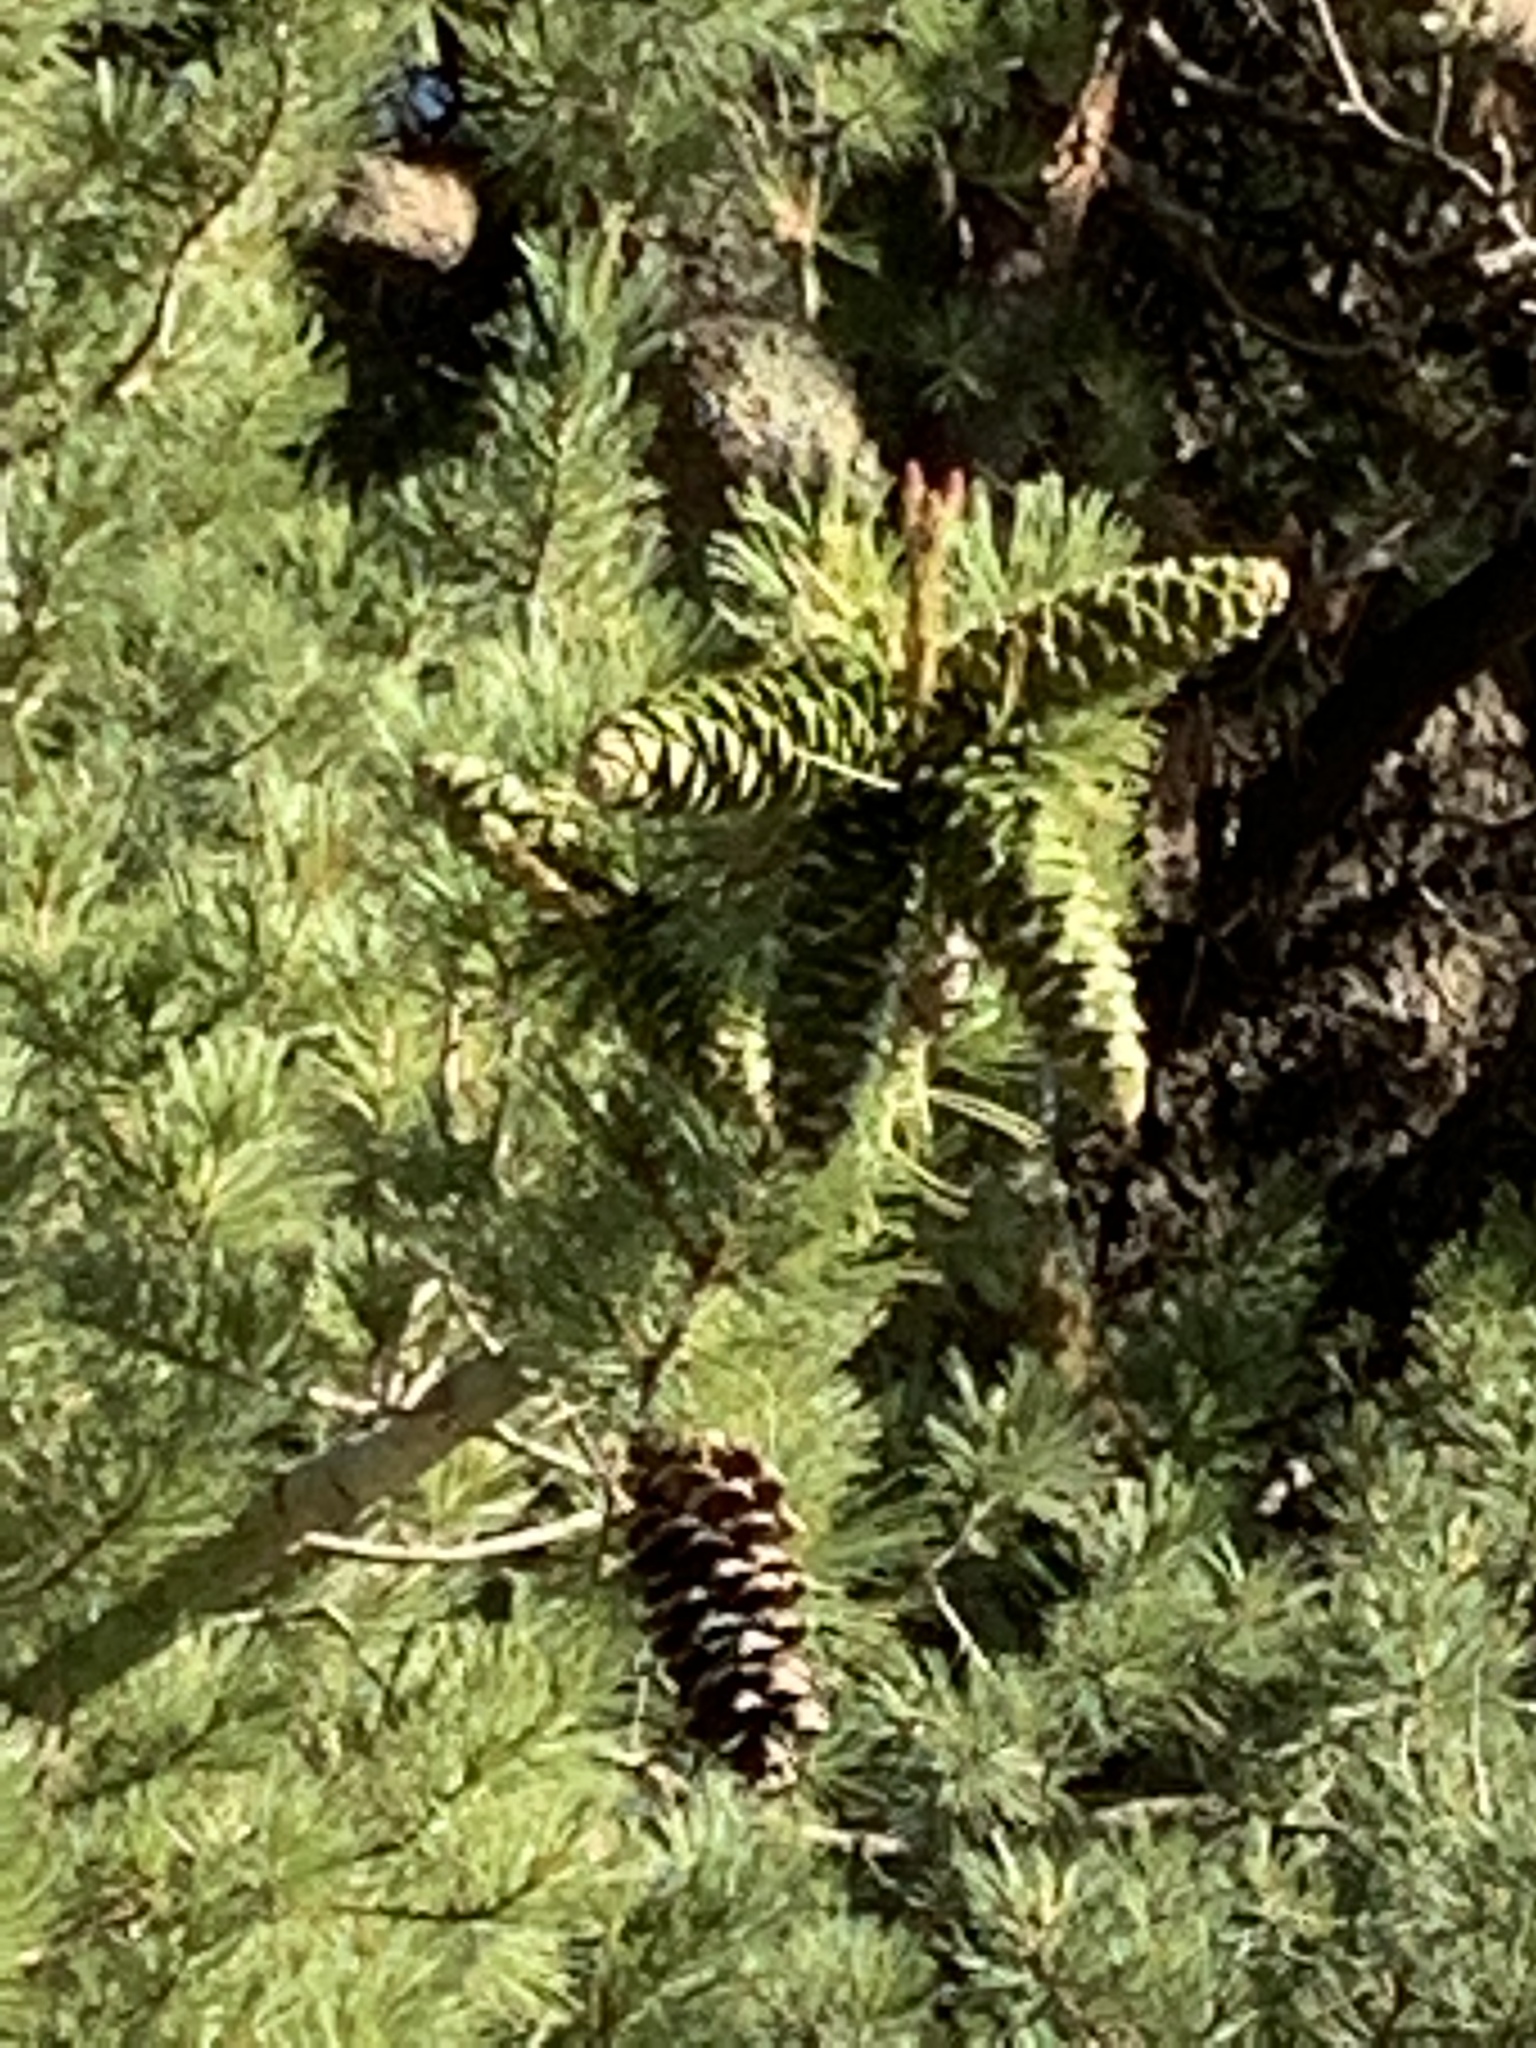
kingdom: Plantae
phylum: Tracheophyta
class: Pinopsida
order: Pinales
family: Pinaceae
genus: Pinus
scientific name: Pinus strobiformis
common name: Southwestern white pine
